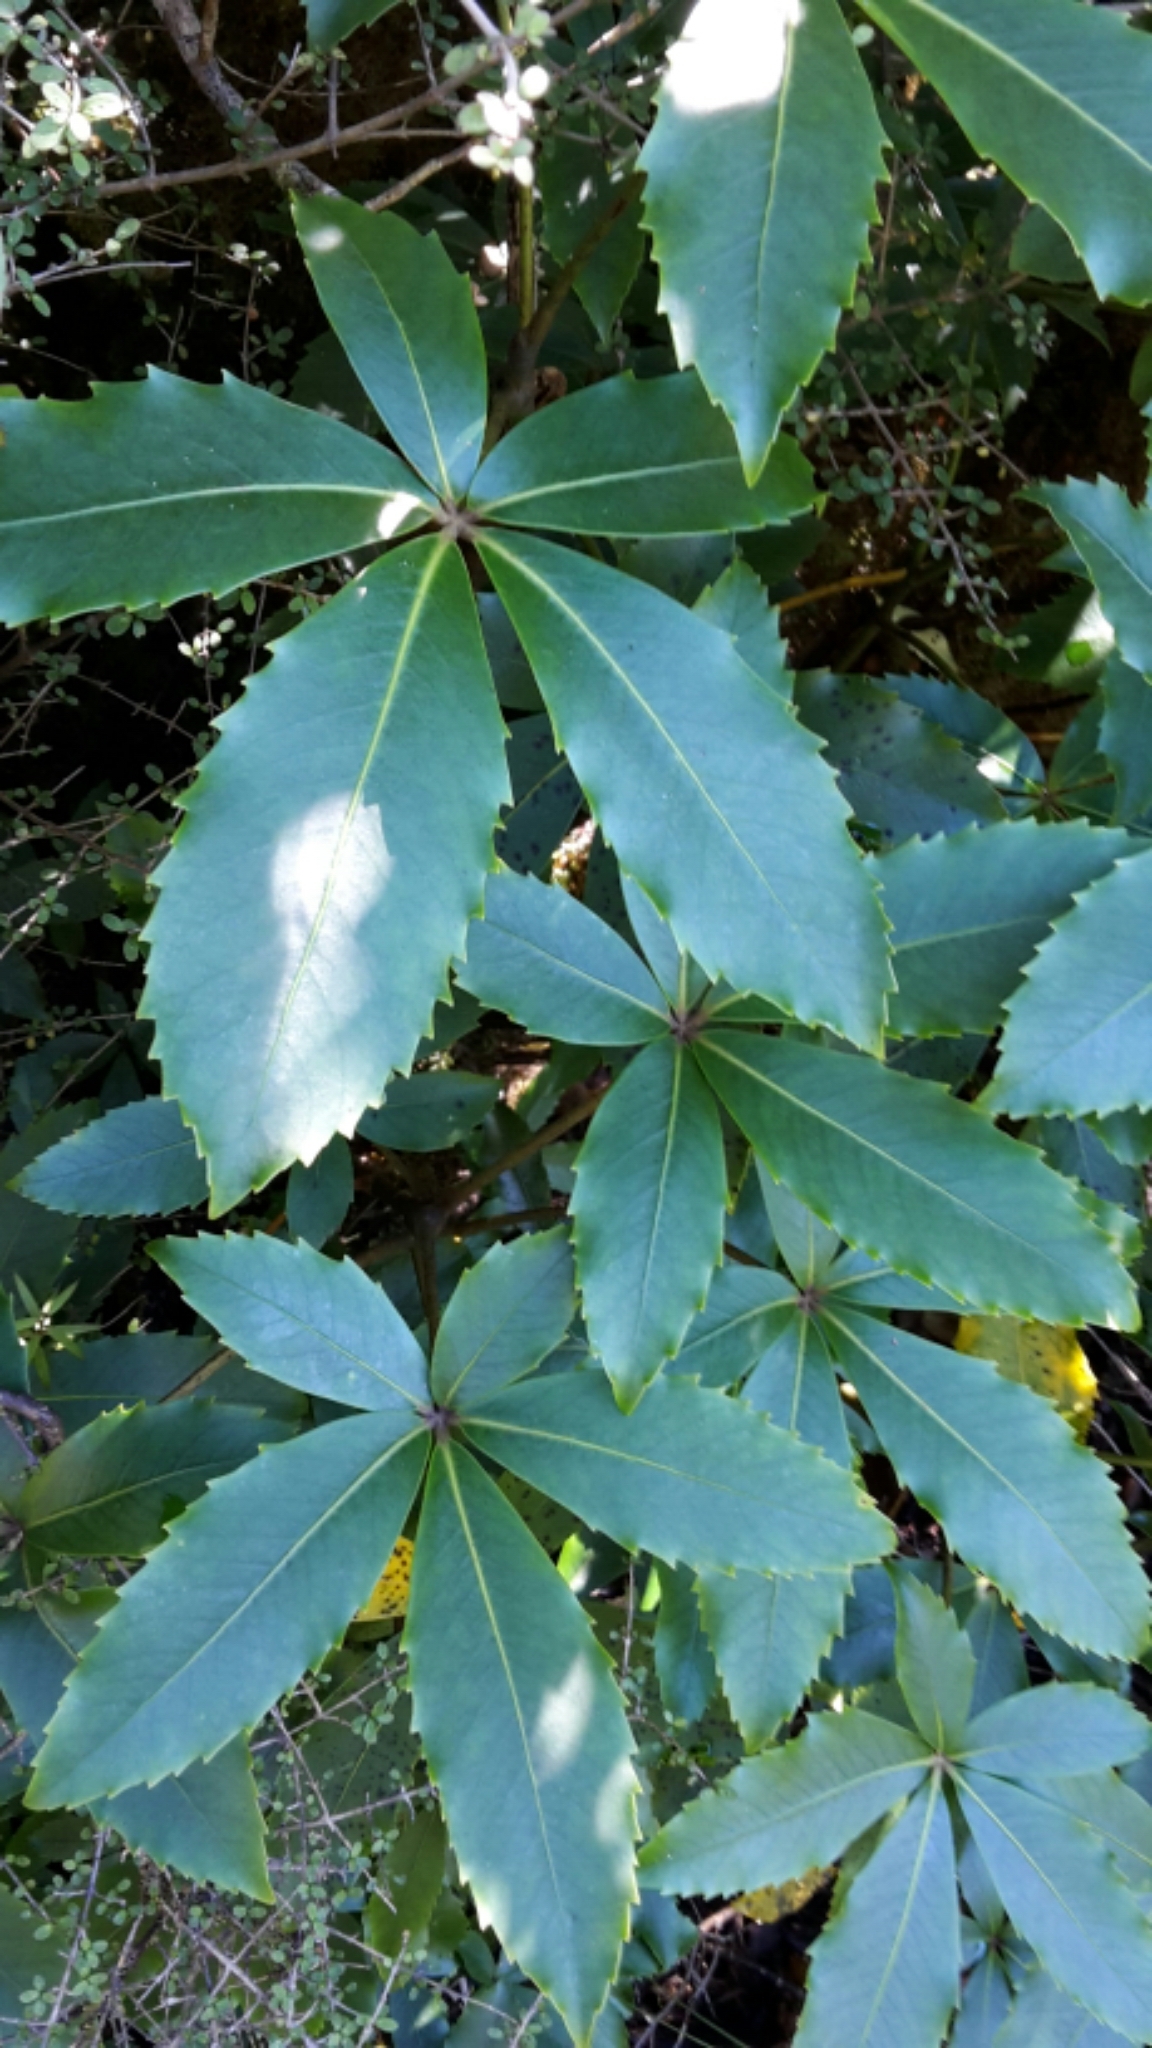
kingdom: Plantae
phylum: Tracheophyta
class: Magnoliopsida
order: Apiales
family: Araliaceae
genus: Neopanax
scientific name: Neopanax colensoi
